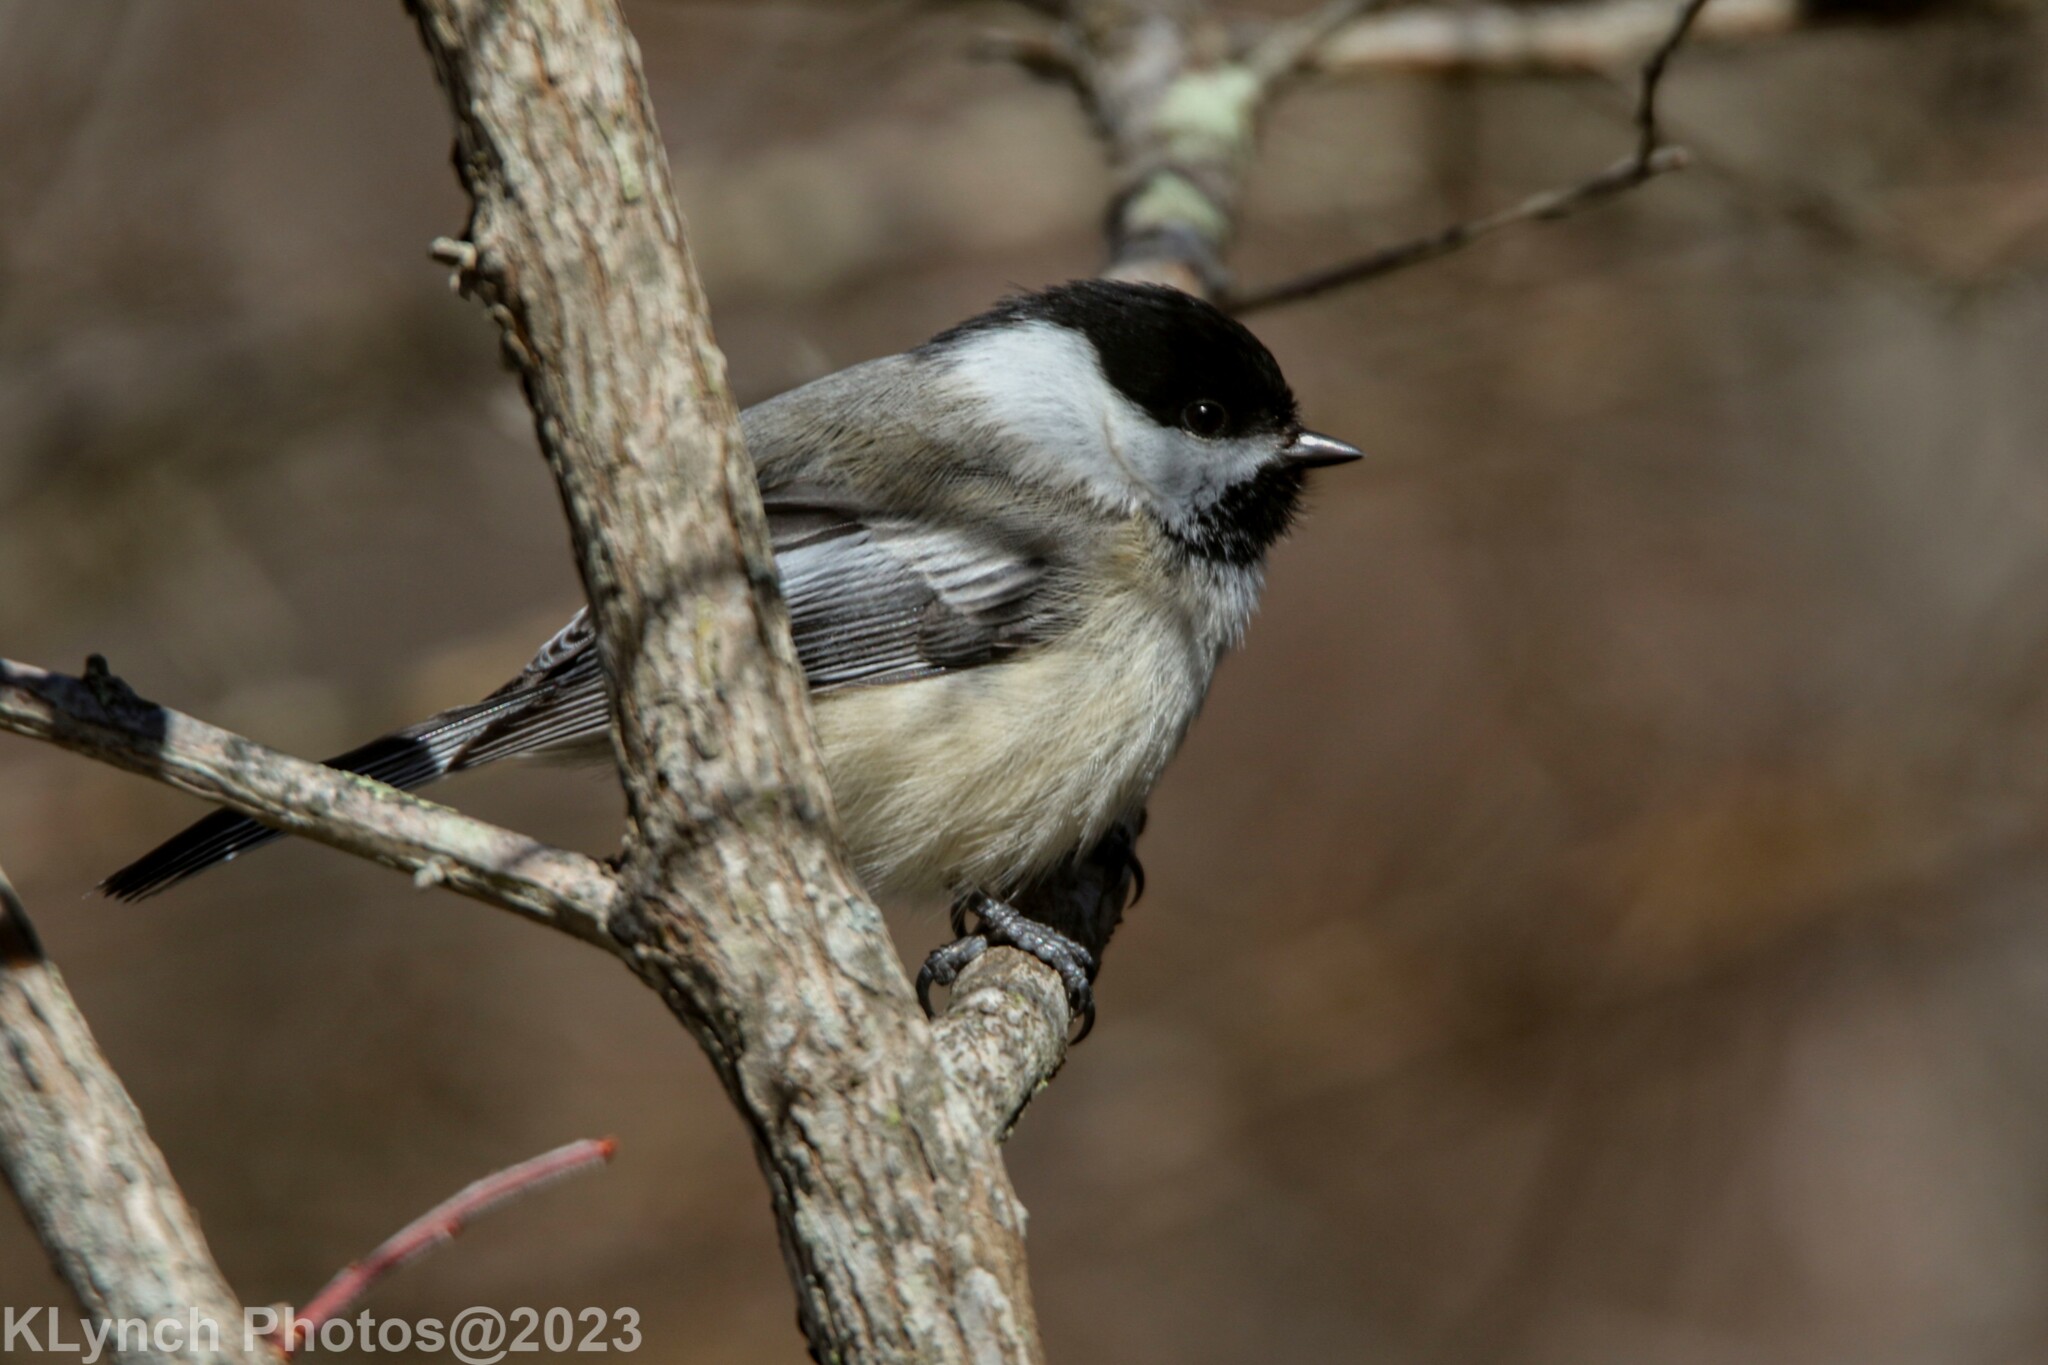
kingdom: Animalia
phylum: Chordata
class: Aves
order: Passeriformes
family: Paridae
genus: Poecile
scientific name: Poecile atricapillus
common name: Black-capped chickadee
